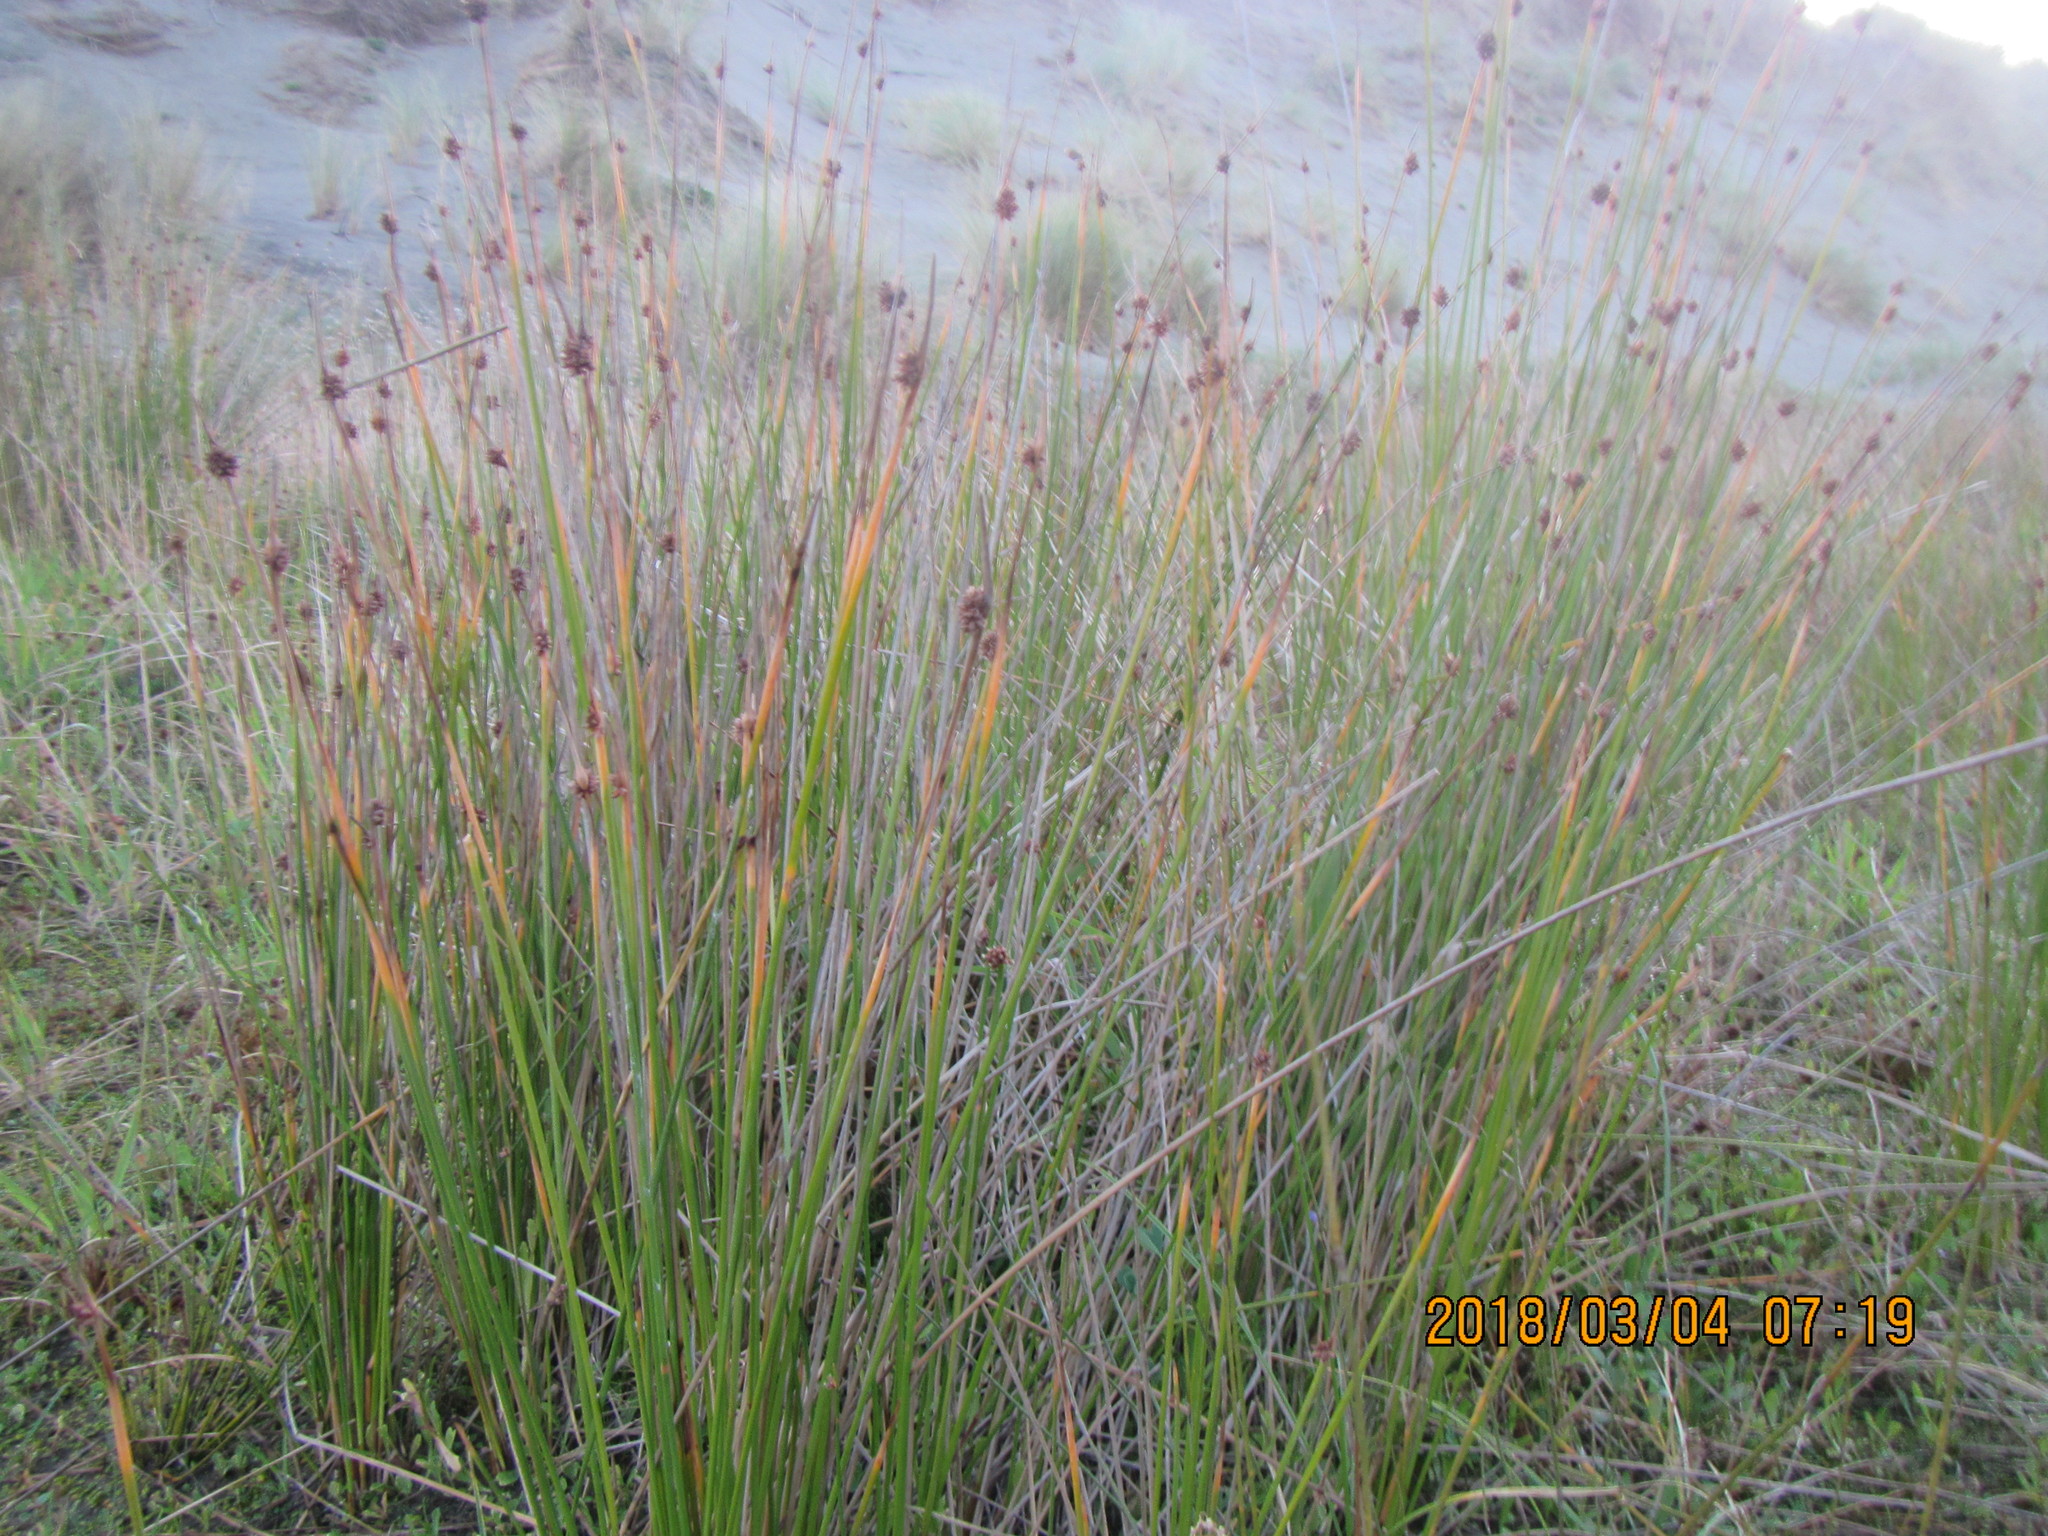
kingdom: Plantae
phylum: Tracheophyta
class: Liliopsida
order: Poales
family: Cyperaceae
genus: Ficinia
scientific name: Ficinia nodosa
